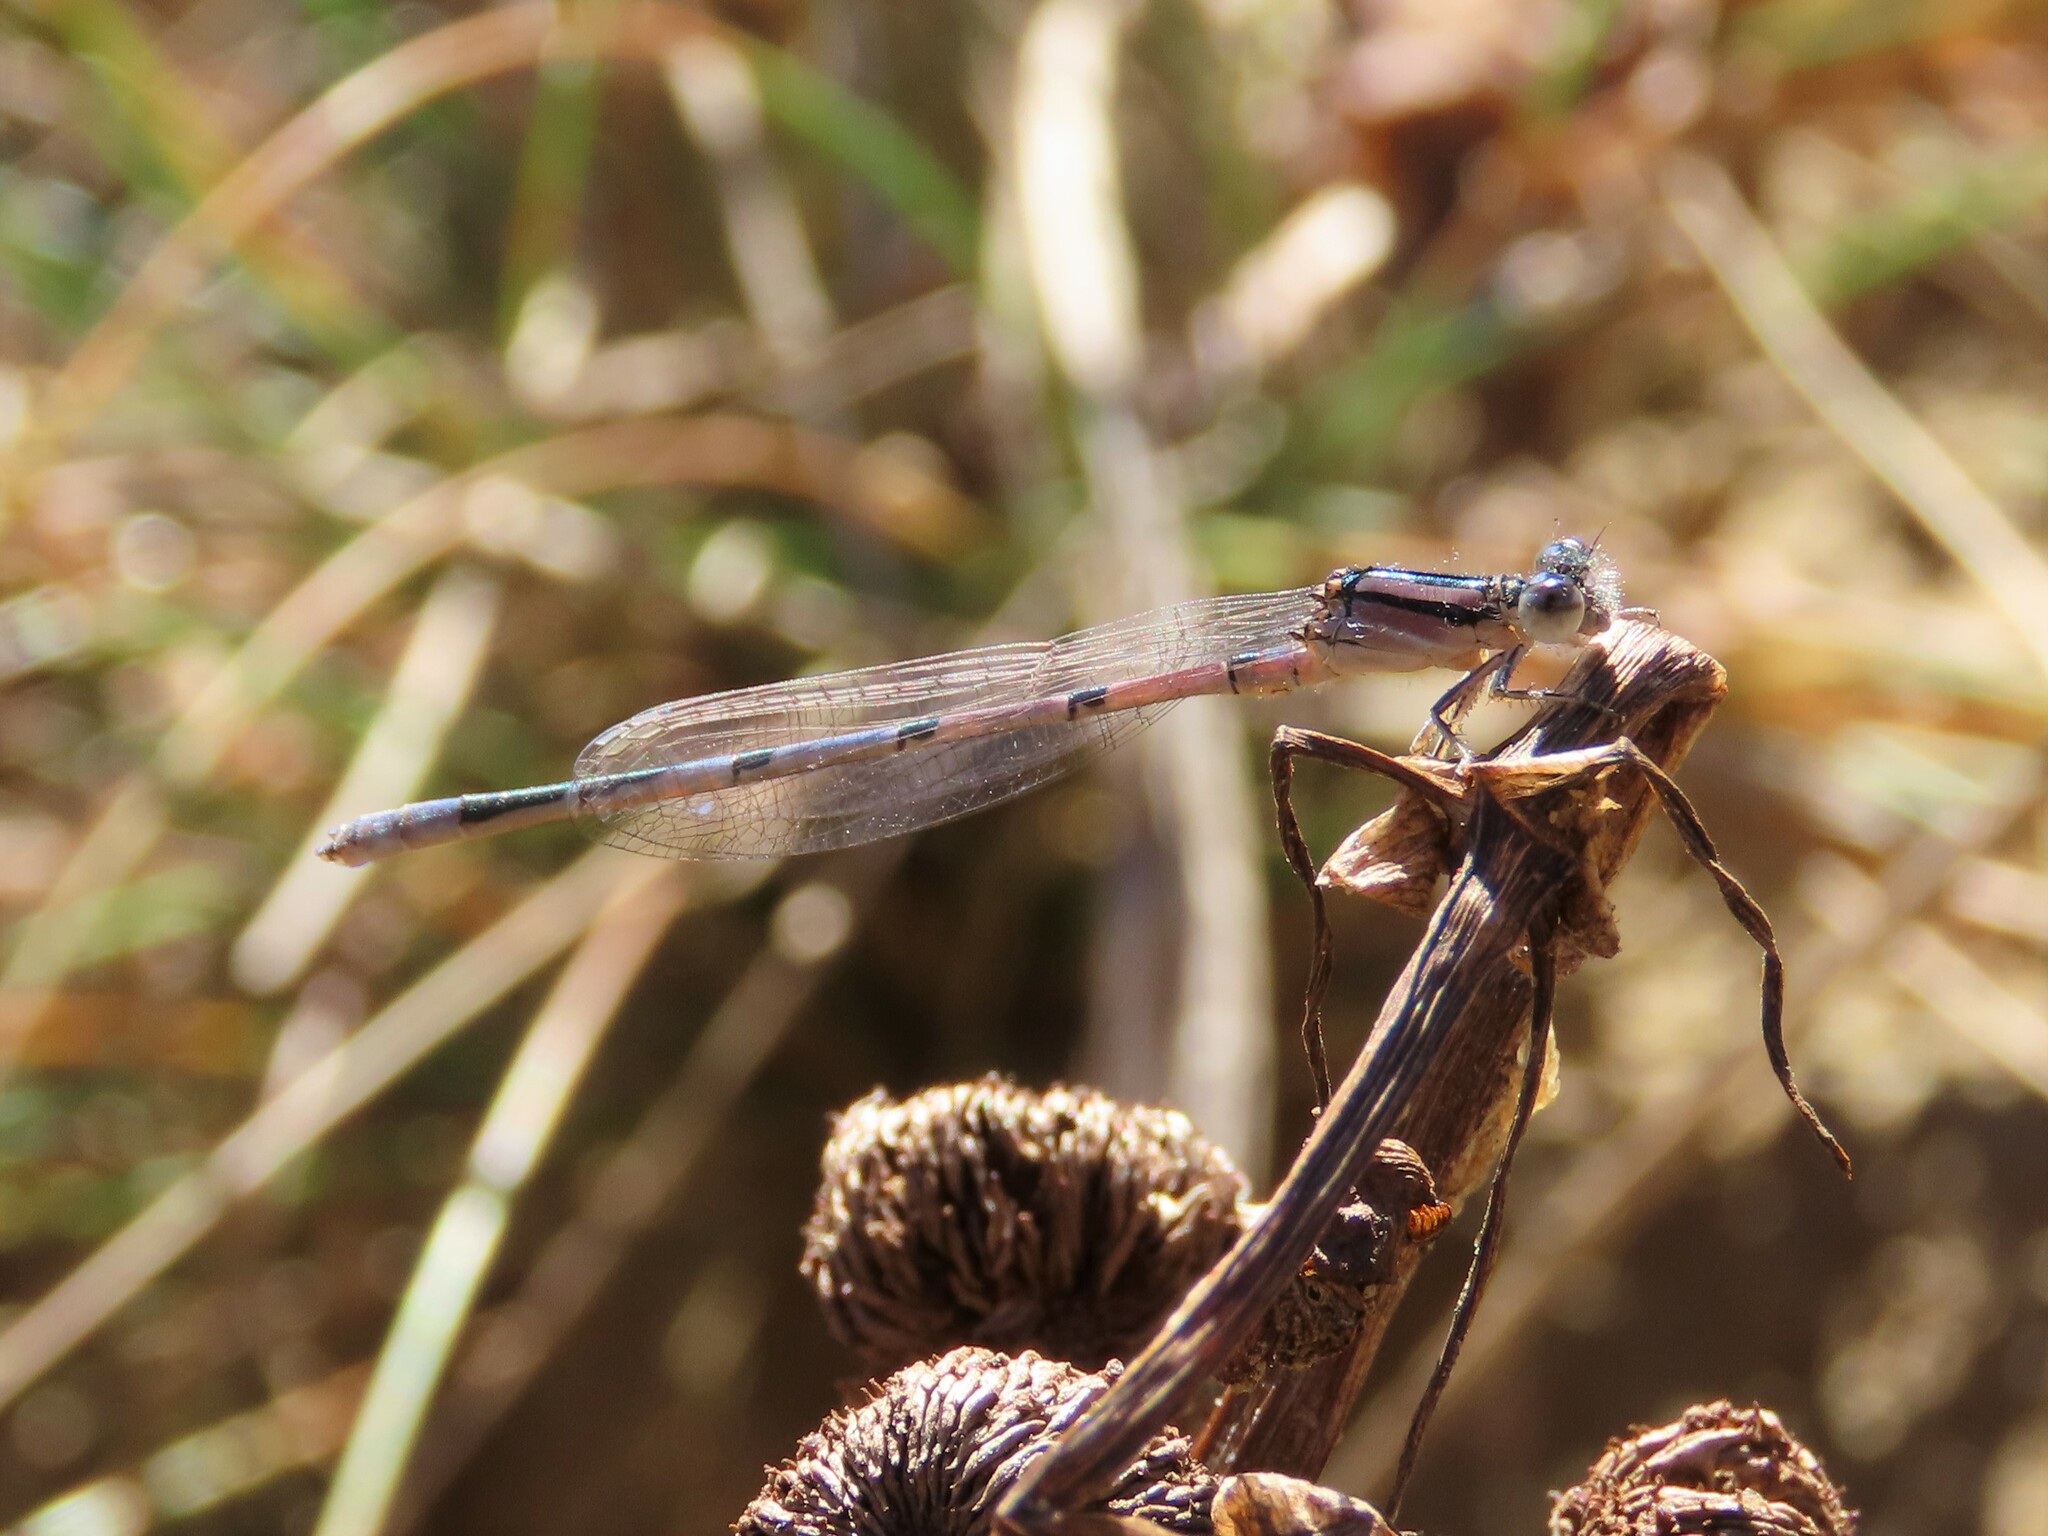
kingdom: Animalia
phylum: Arthropoda
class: Insecta
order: Odonata
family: Coenagrionidae
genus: Enallagma
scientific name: Enallagma civile
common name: Damselfly
